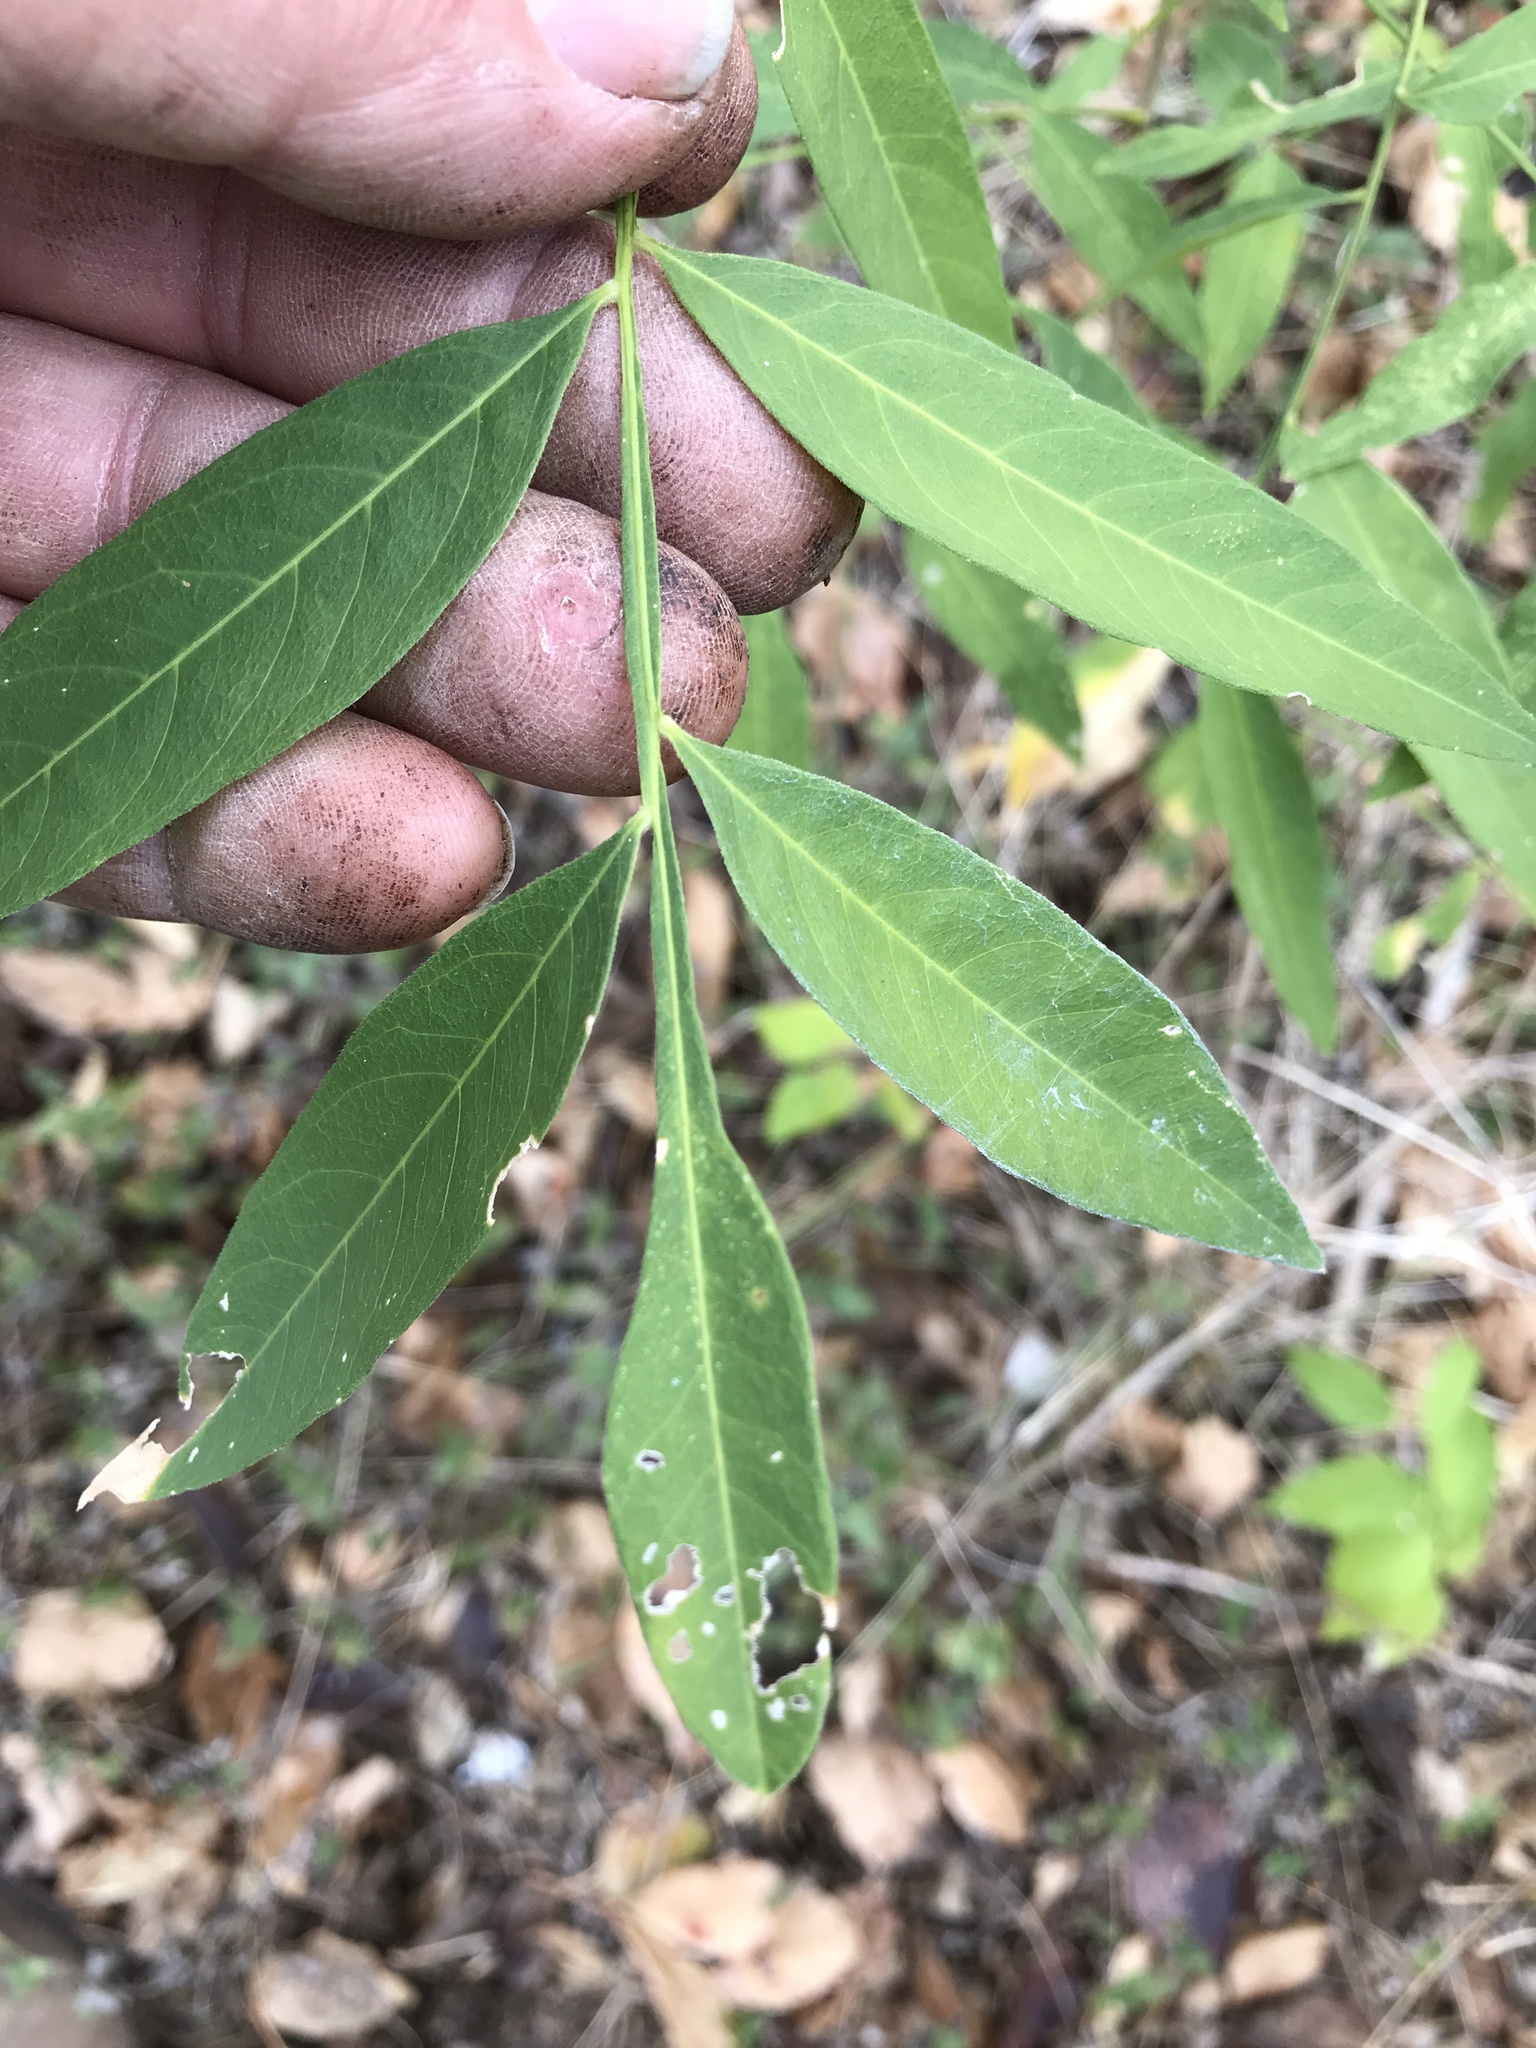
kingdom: Plantae
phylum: Tracheophyta
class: Magnoliopsida
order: Sapindales
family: Sapindaceae
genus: Sapindus
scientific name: Sapindus drummondii
